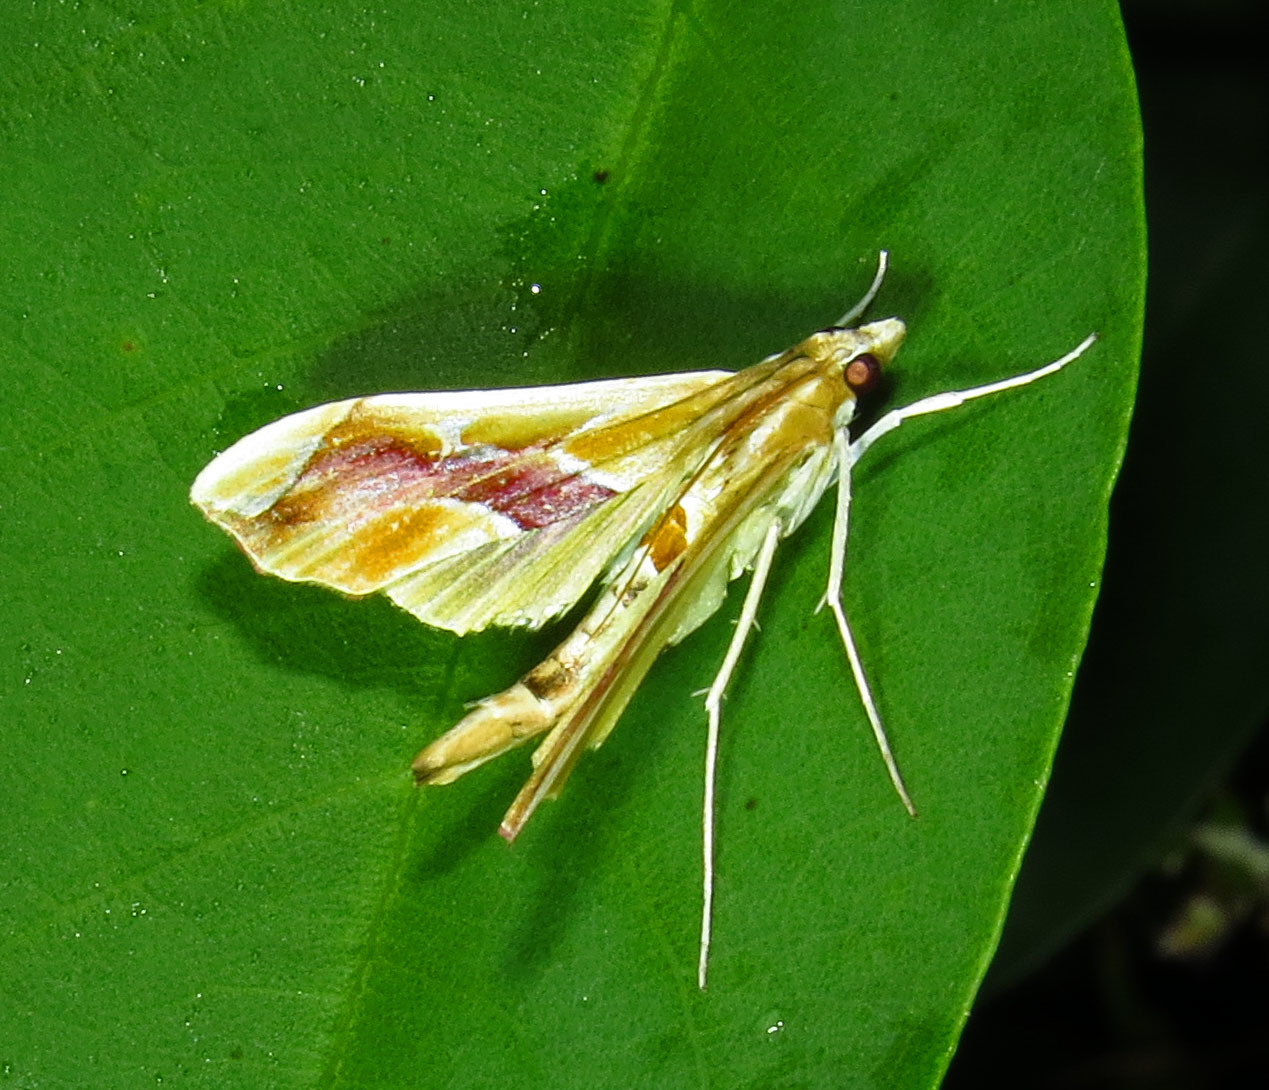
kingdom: Animalia
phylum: Arthropoda
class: Insecta
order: Lepidoptera
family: Crambidae
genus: Agathodes
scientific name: Agathodes monstralis
